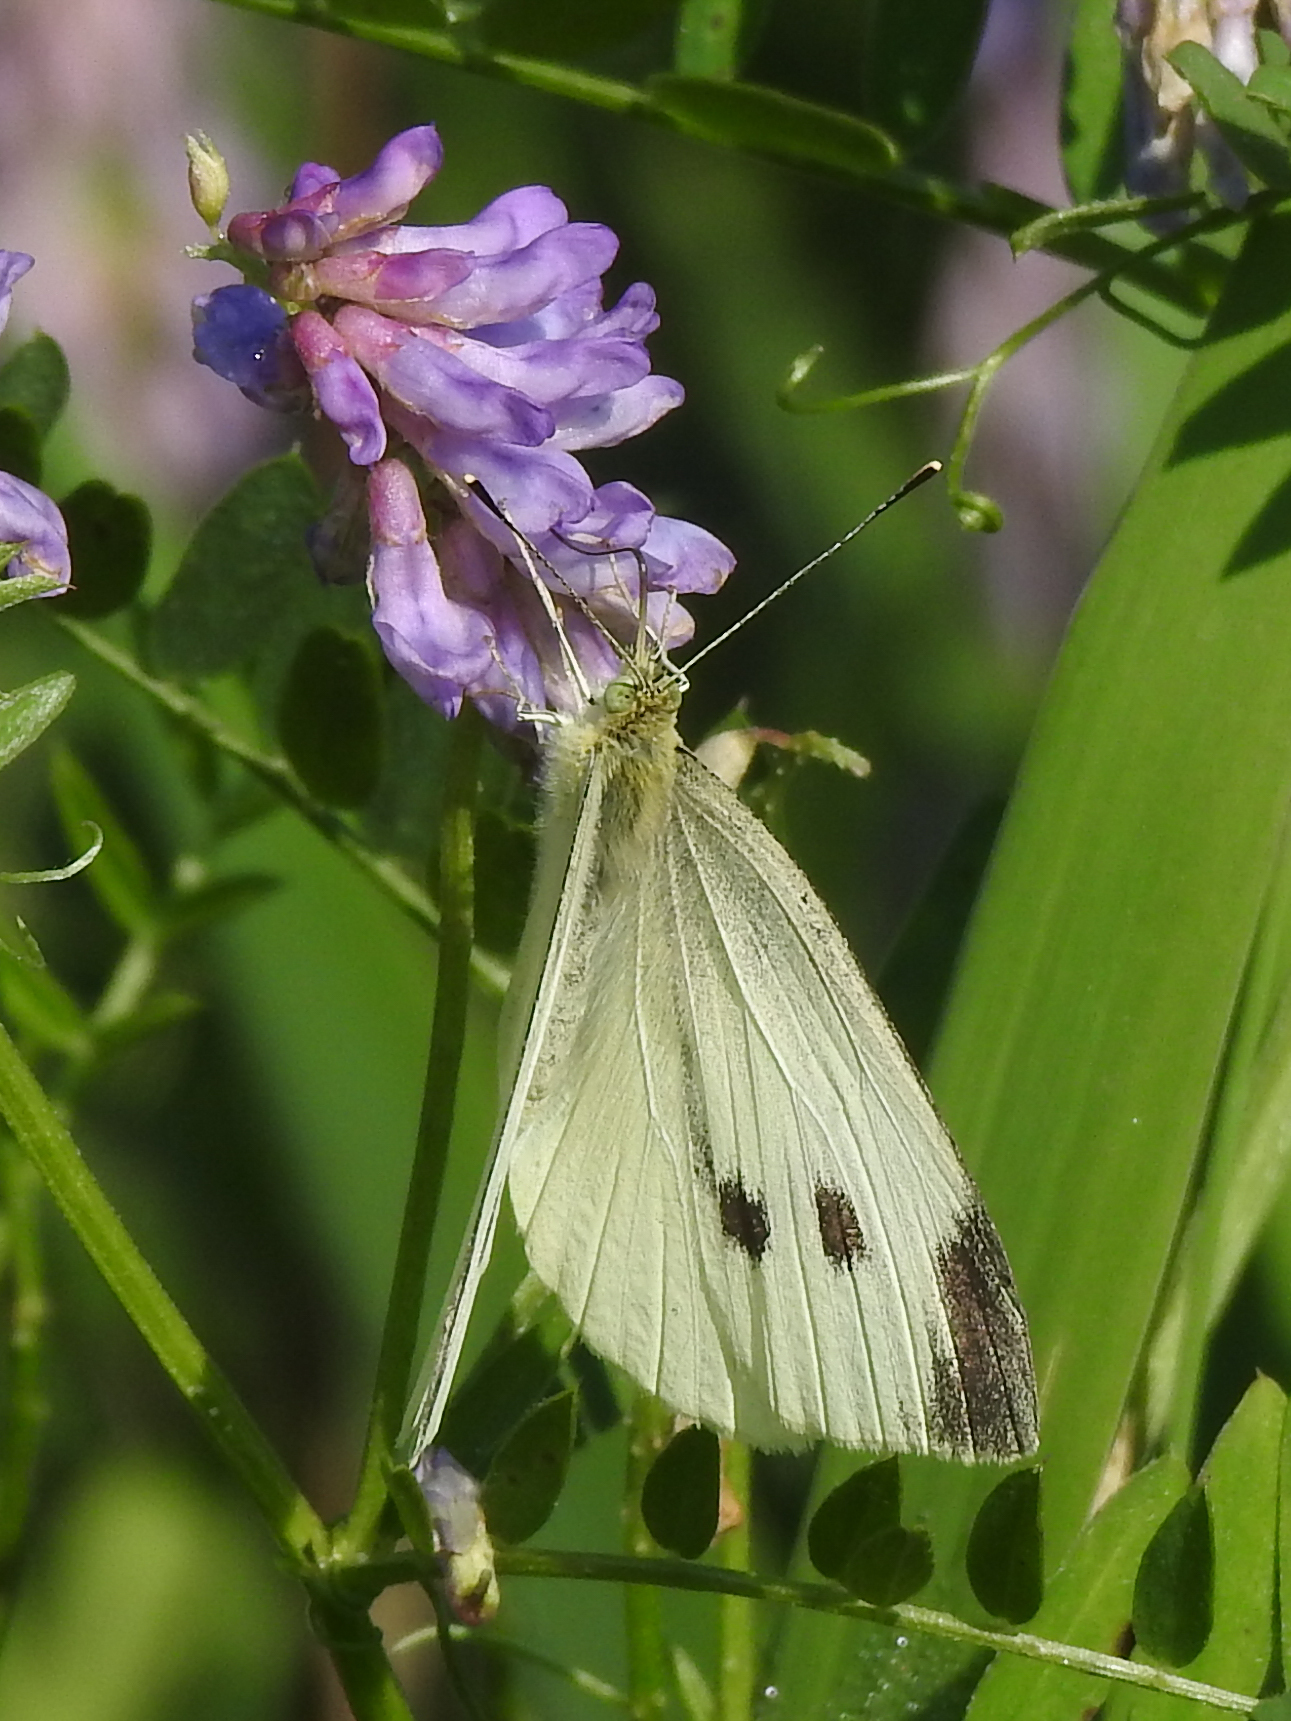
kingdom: Animalia
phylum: Arthropoda
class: Insecta
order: Lepidoptera
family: Pieridae
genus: Pieris
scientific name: Pieris rapae
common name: Small white
